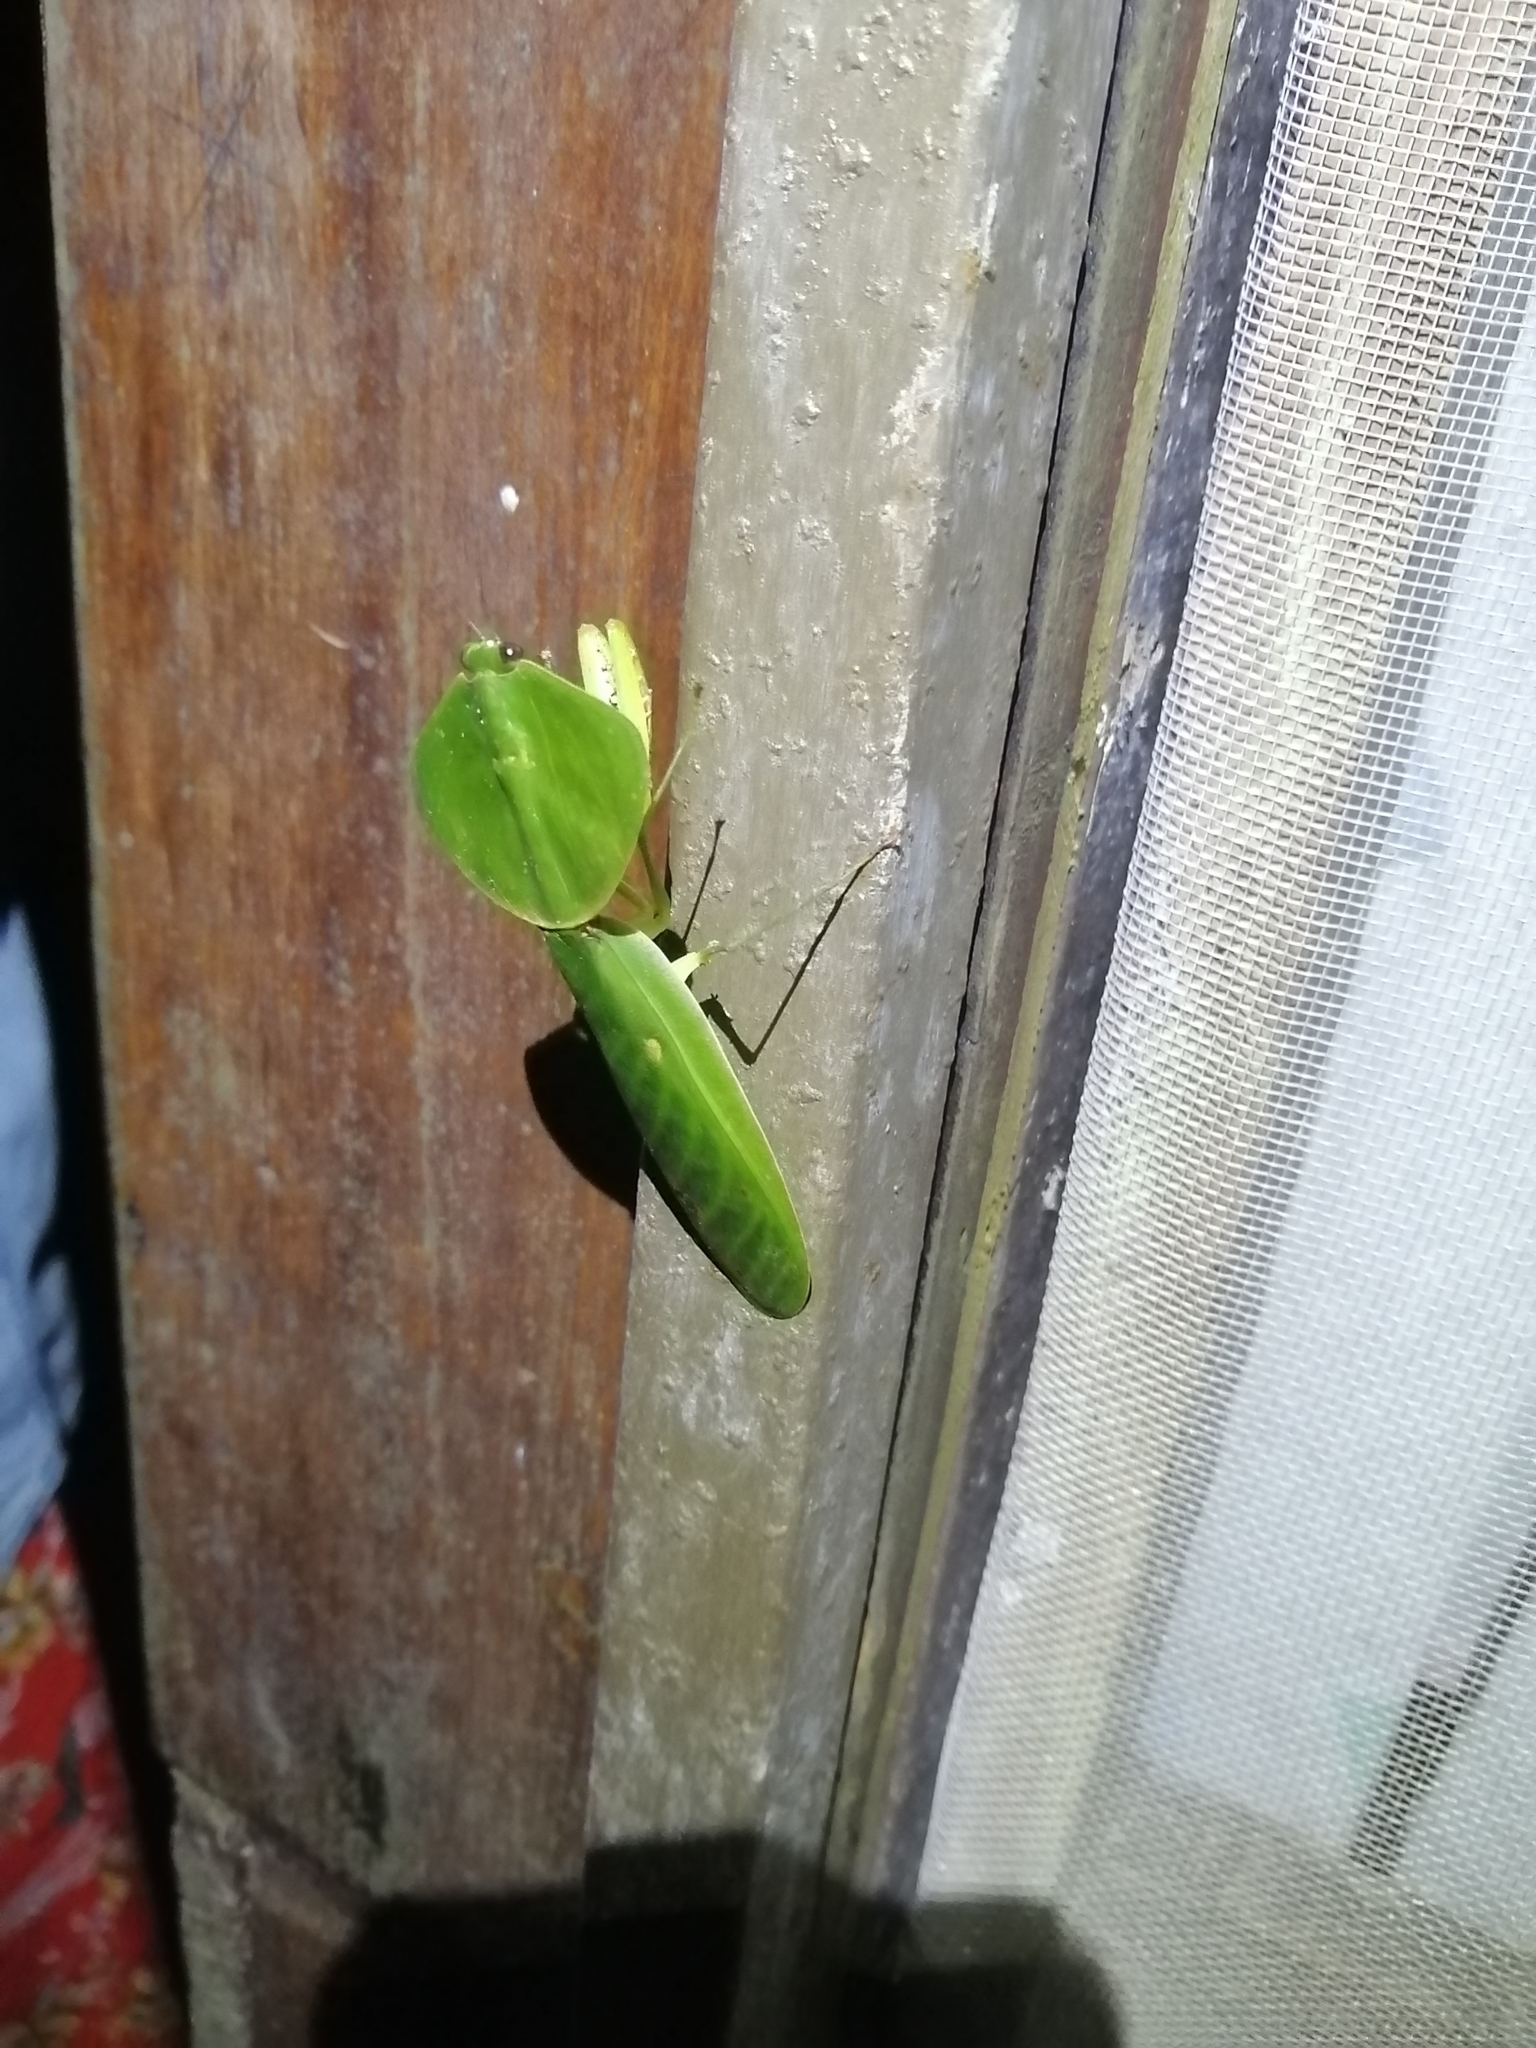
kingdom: Animalia
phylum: Arthropoda
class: Insecta
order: Mantodea
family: Mantidae
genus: Choeradodis
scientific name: Choeradodis rhombicollis
